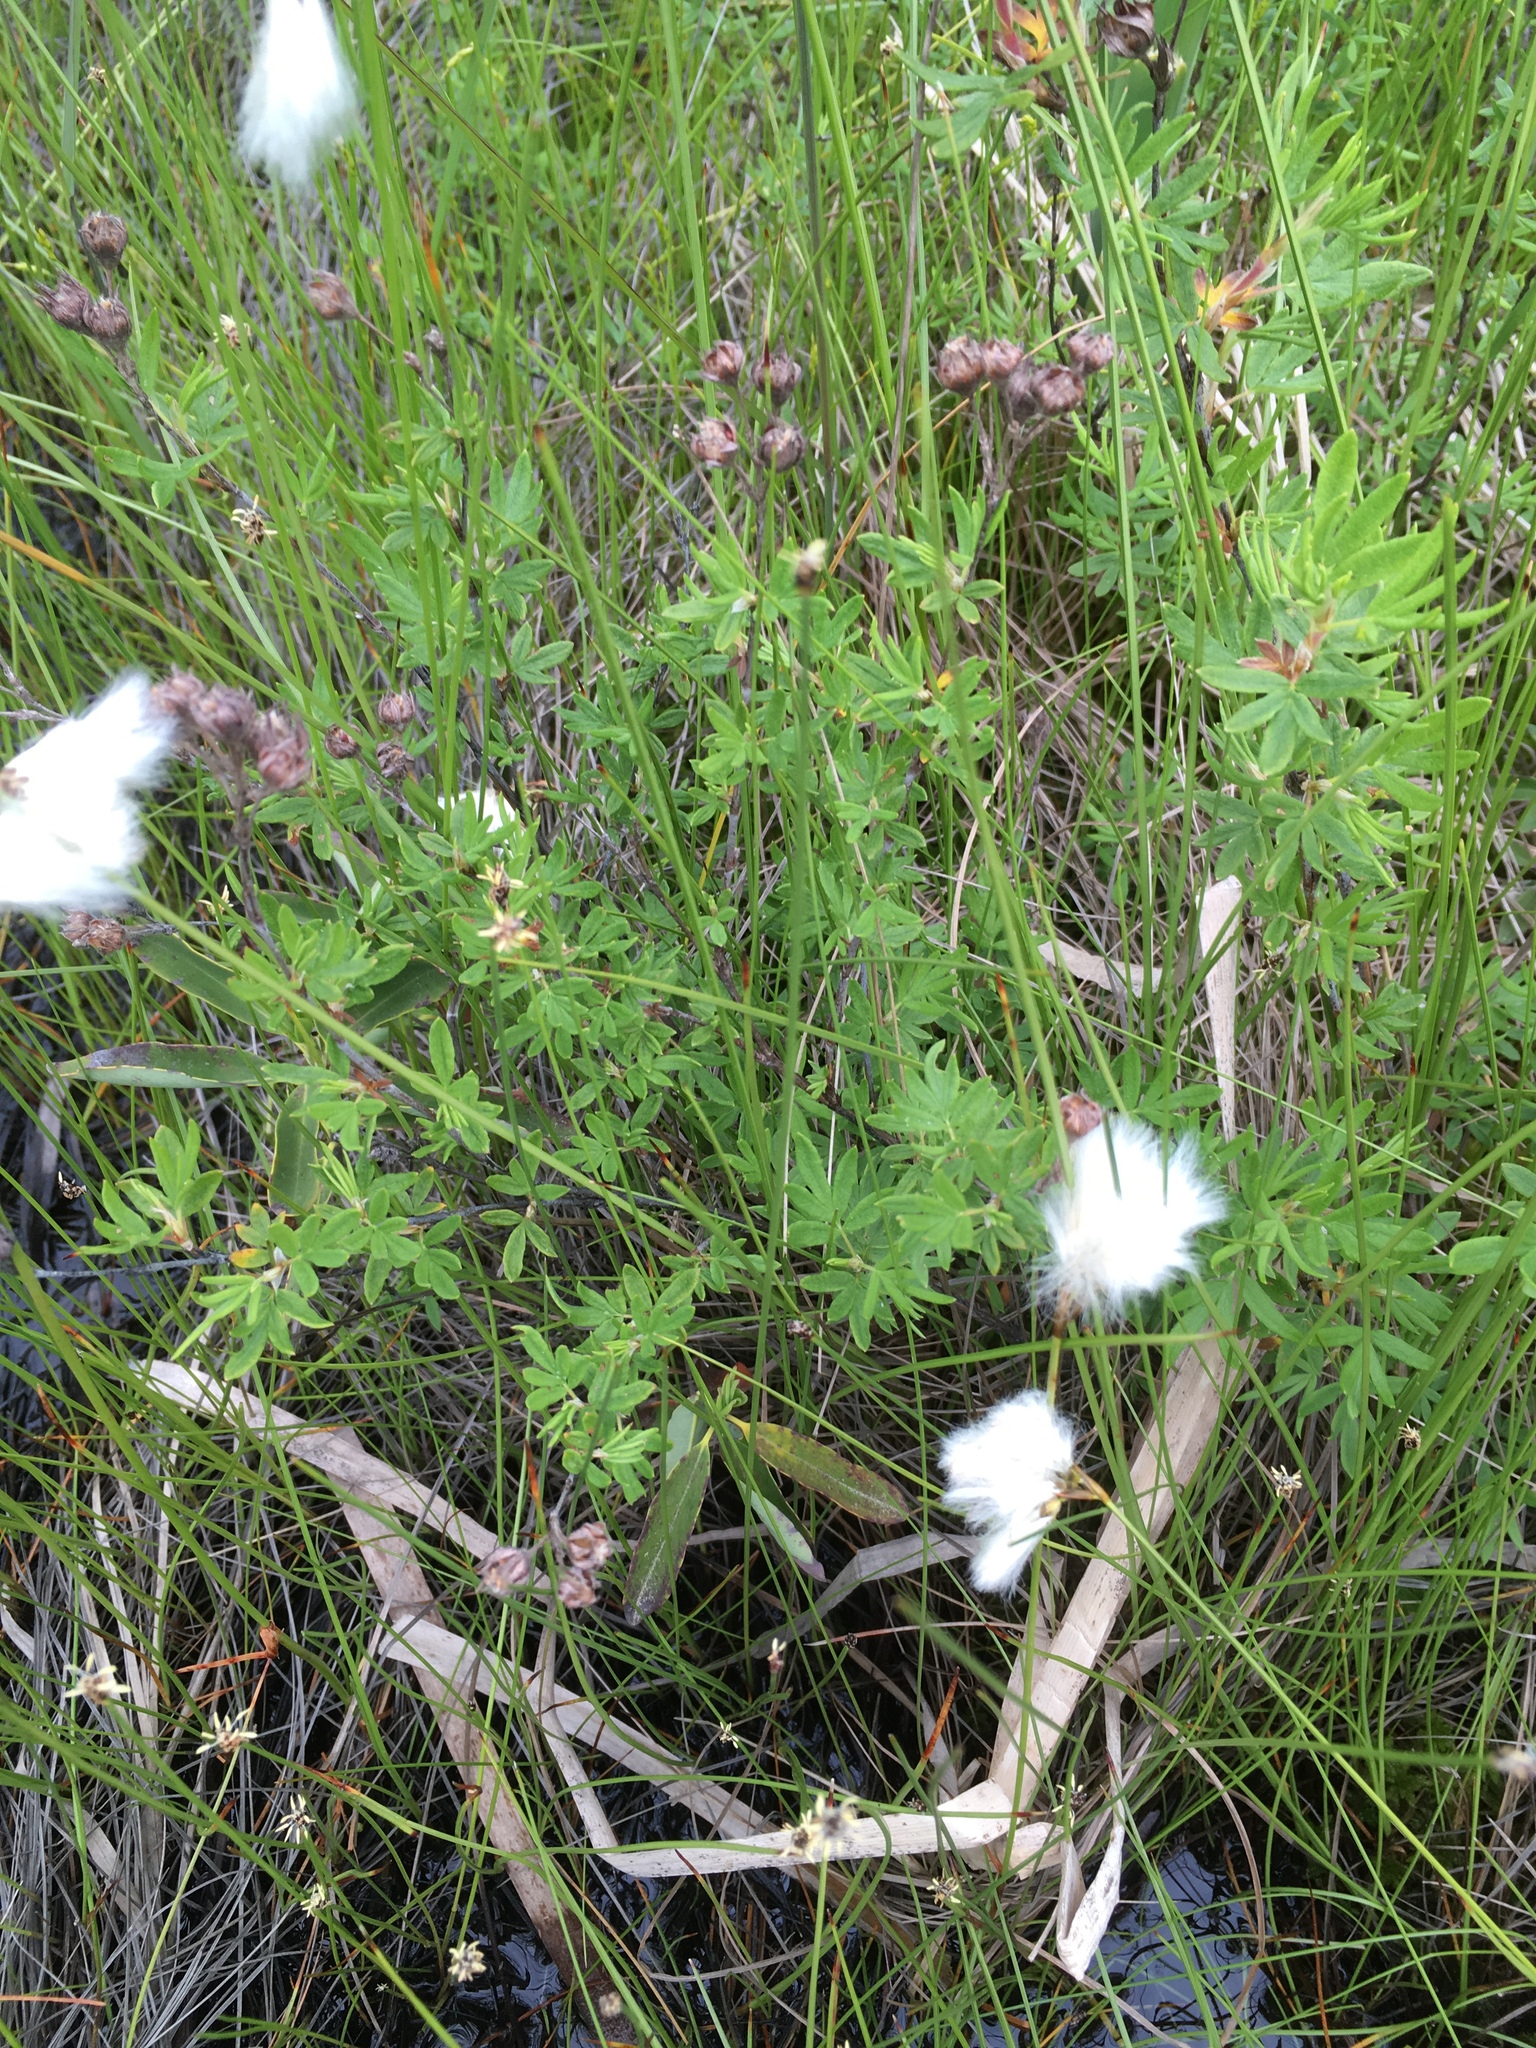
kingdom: Plantae
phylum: Tracheophyta
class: Magnoliopsida
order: Rosales
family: Rosaceae
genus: Dasiphora
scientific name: Dasiphora fruticosa
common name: Shrubby cinquefoil
